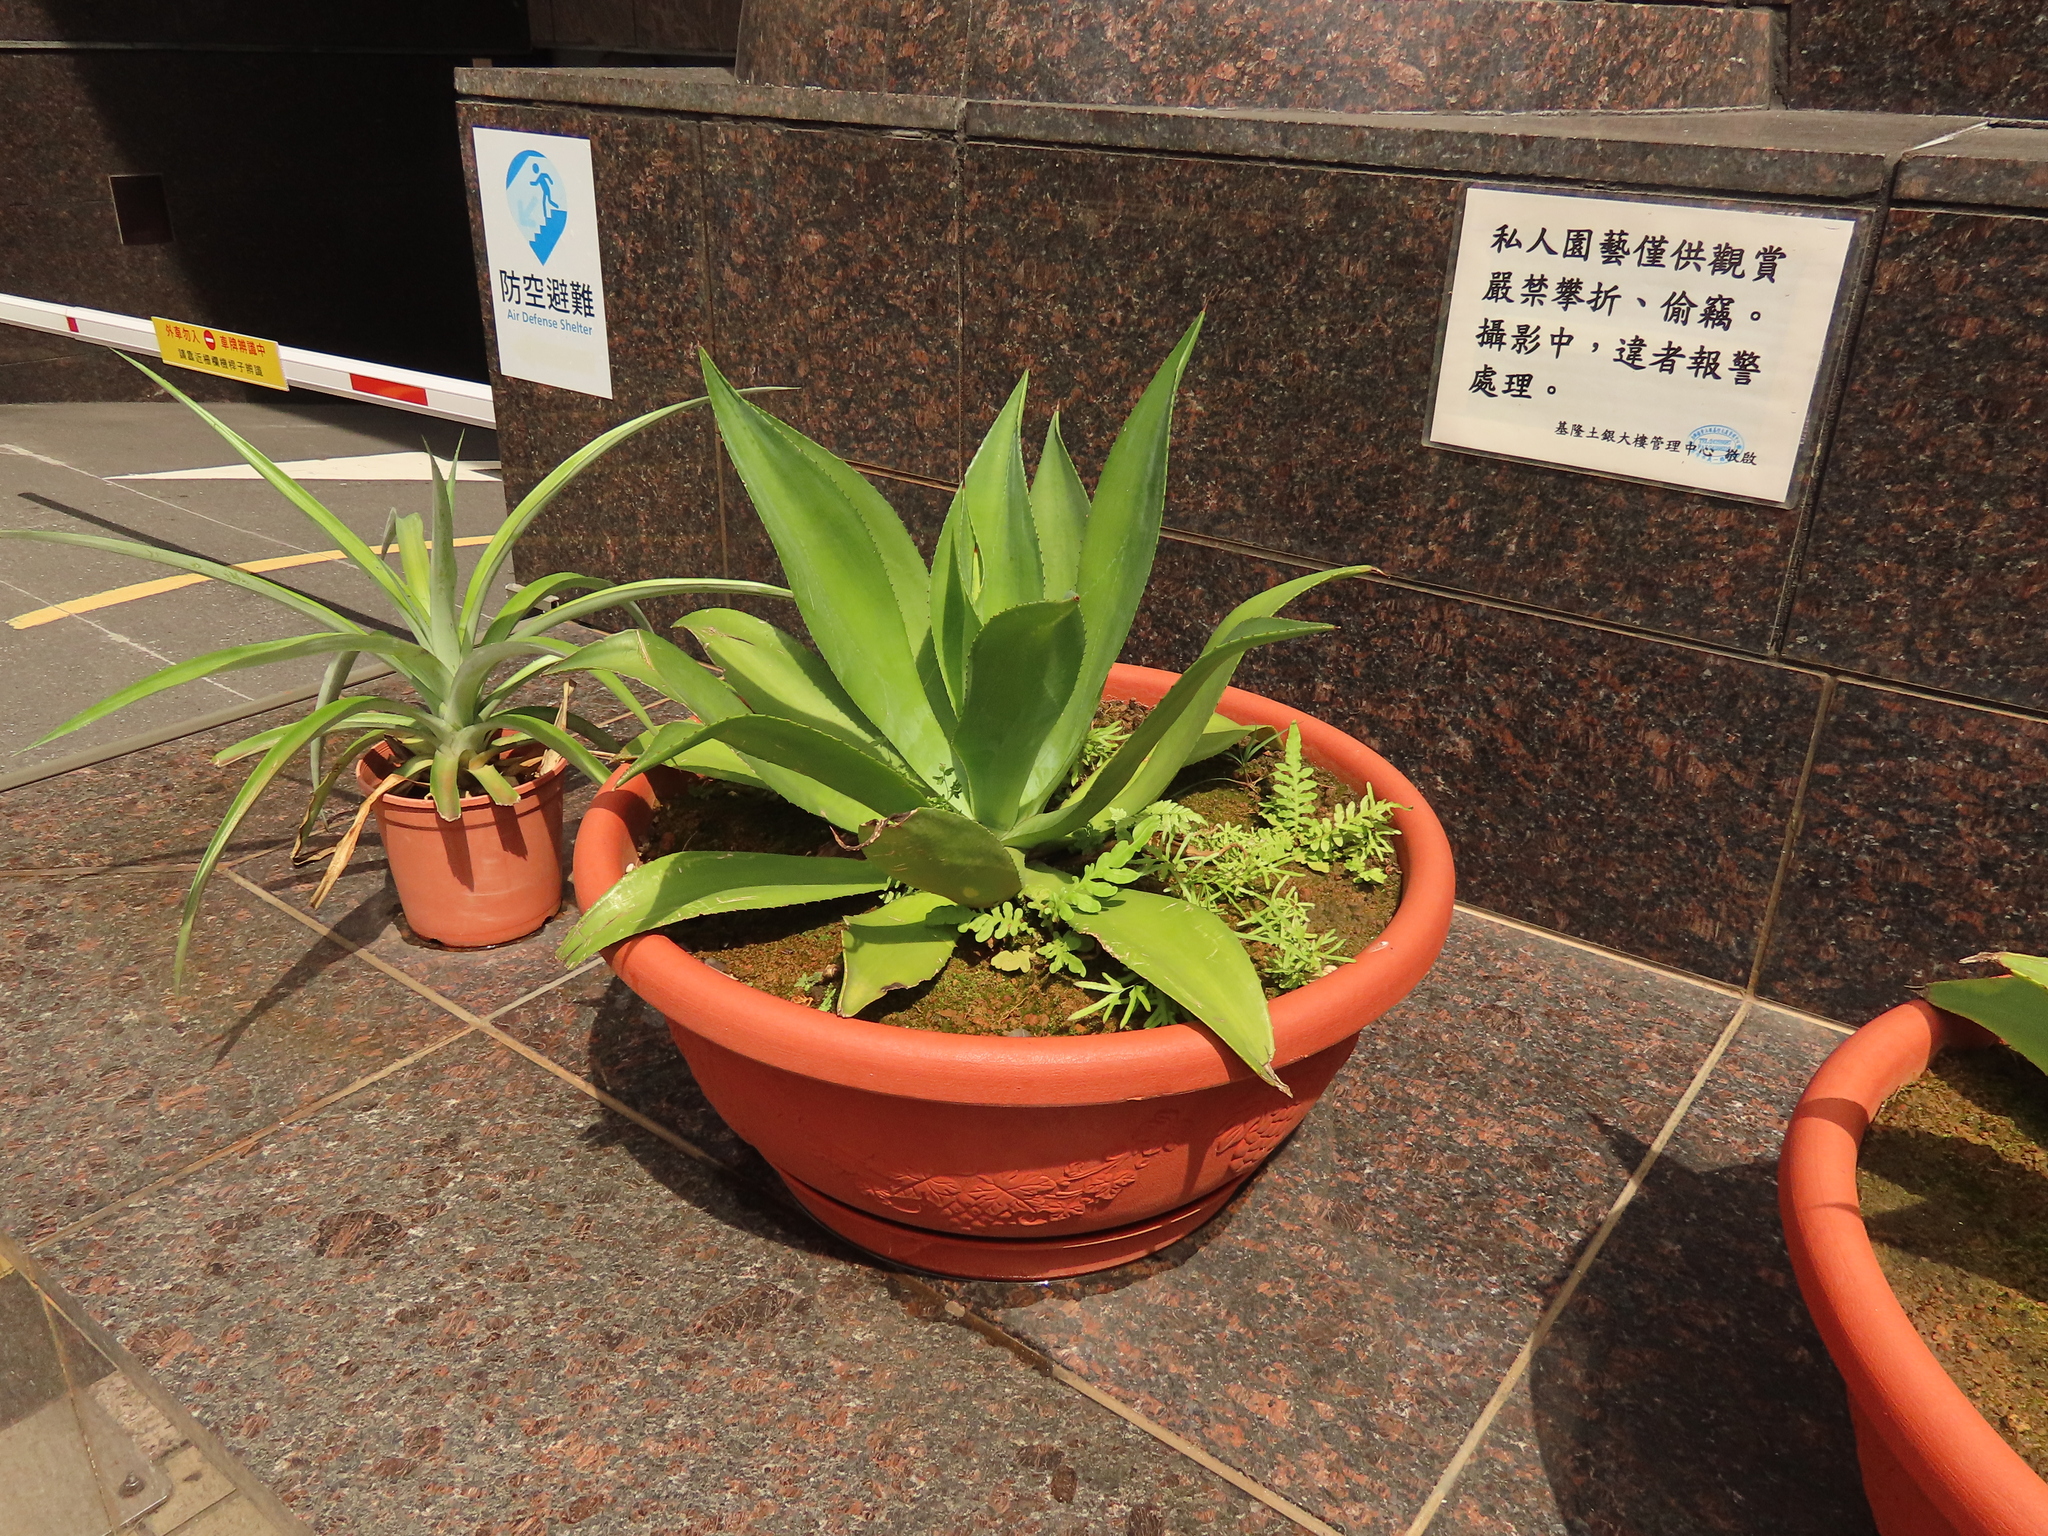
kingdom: Plantae
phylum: Tracheophyta
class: Polypodiopsida
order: Polypodiales
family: Blechnaceae
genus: Blechnopsis
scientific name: Blechnopsis orientalis
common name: Oriental blechnum
